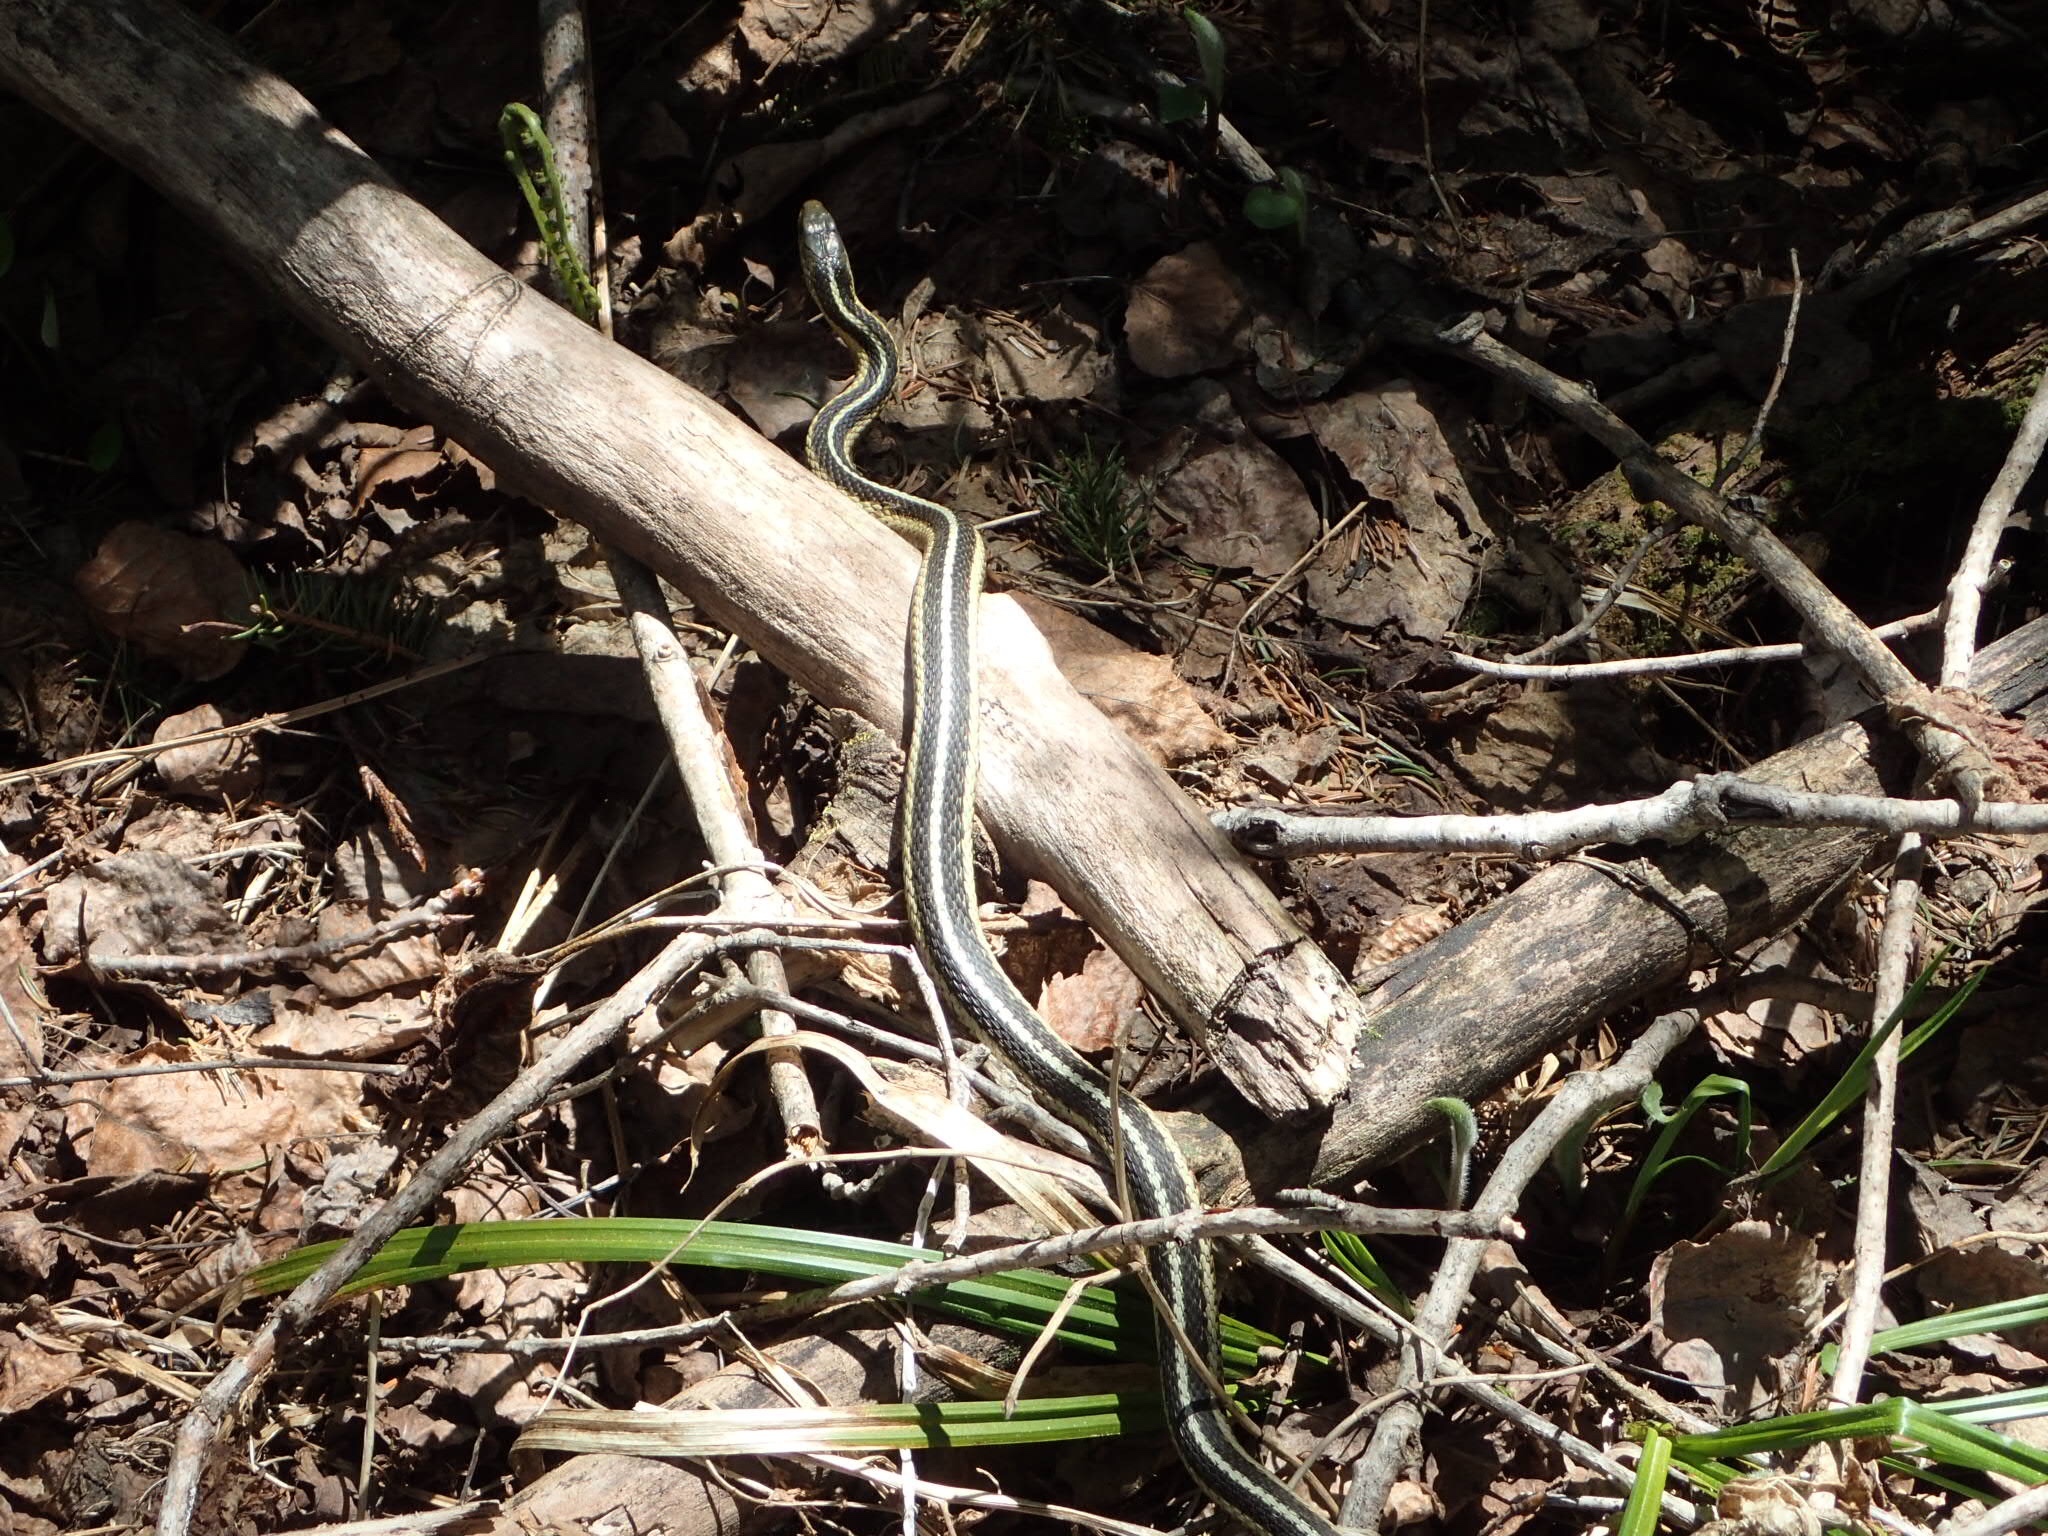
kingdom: Animalia
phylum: Chordata
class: Squamata
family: Colubridae
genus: Thamnophis
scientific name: Thamnophis sirtalis
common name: Common garter snake
